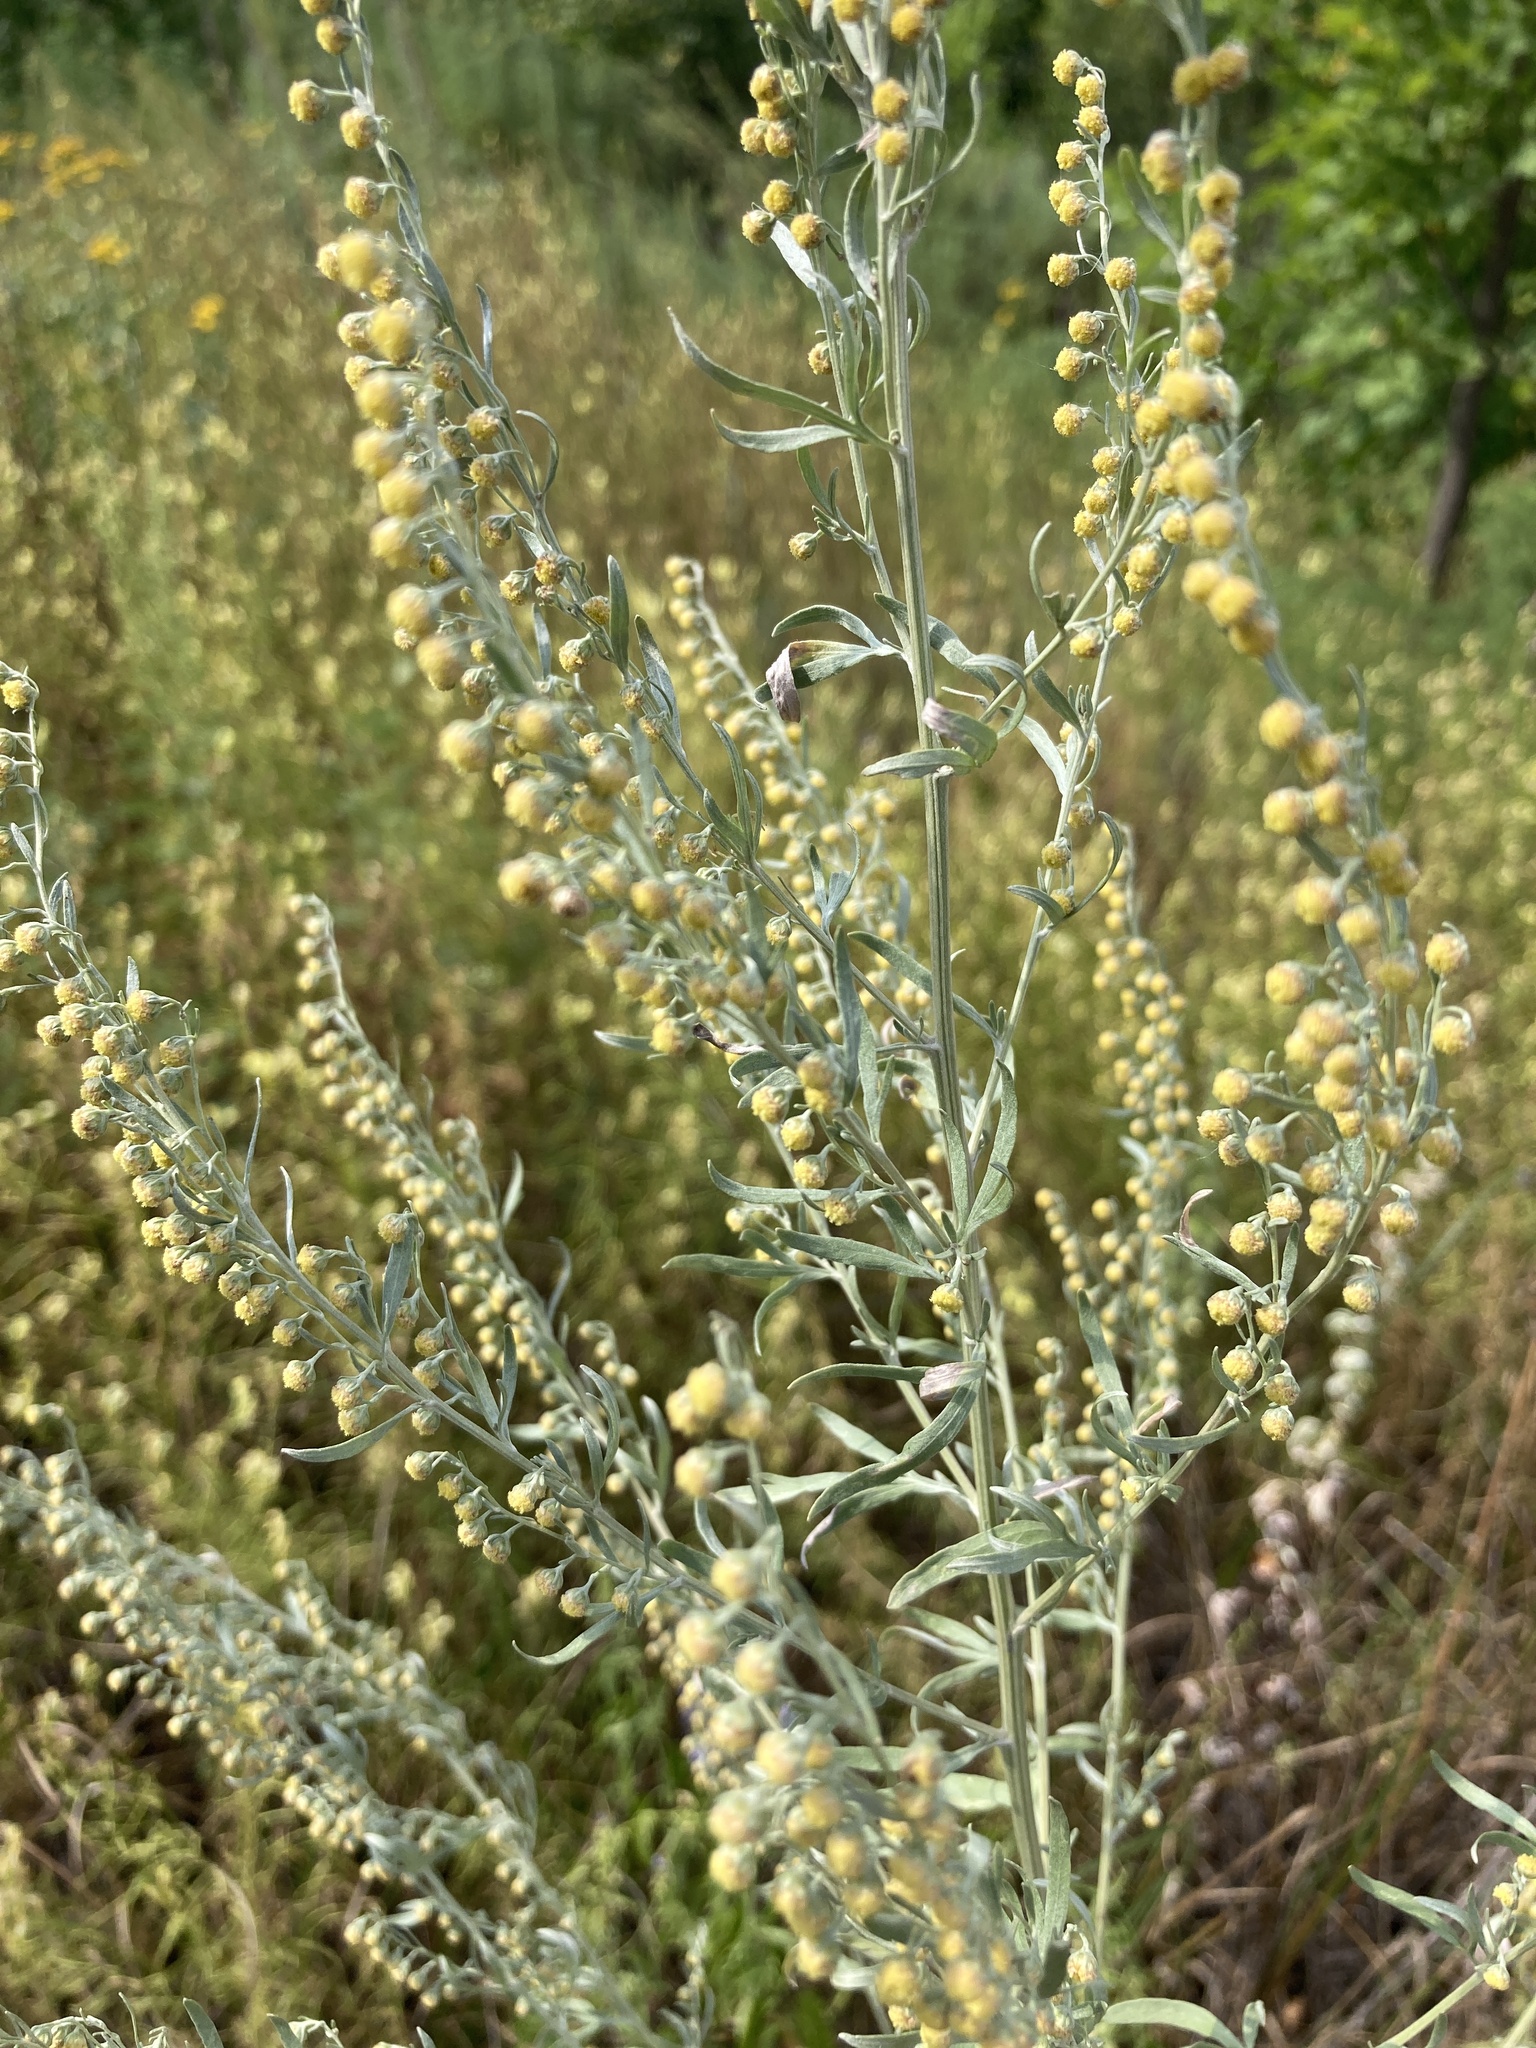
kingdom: Plantae
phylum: Tracheophyta
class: Magnoliopsida
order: Asterales
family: Asteraceae
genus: Artemisia
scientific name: Artemisia absinthium
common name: Wormwood
